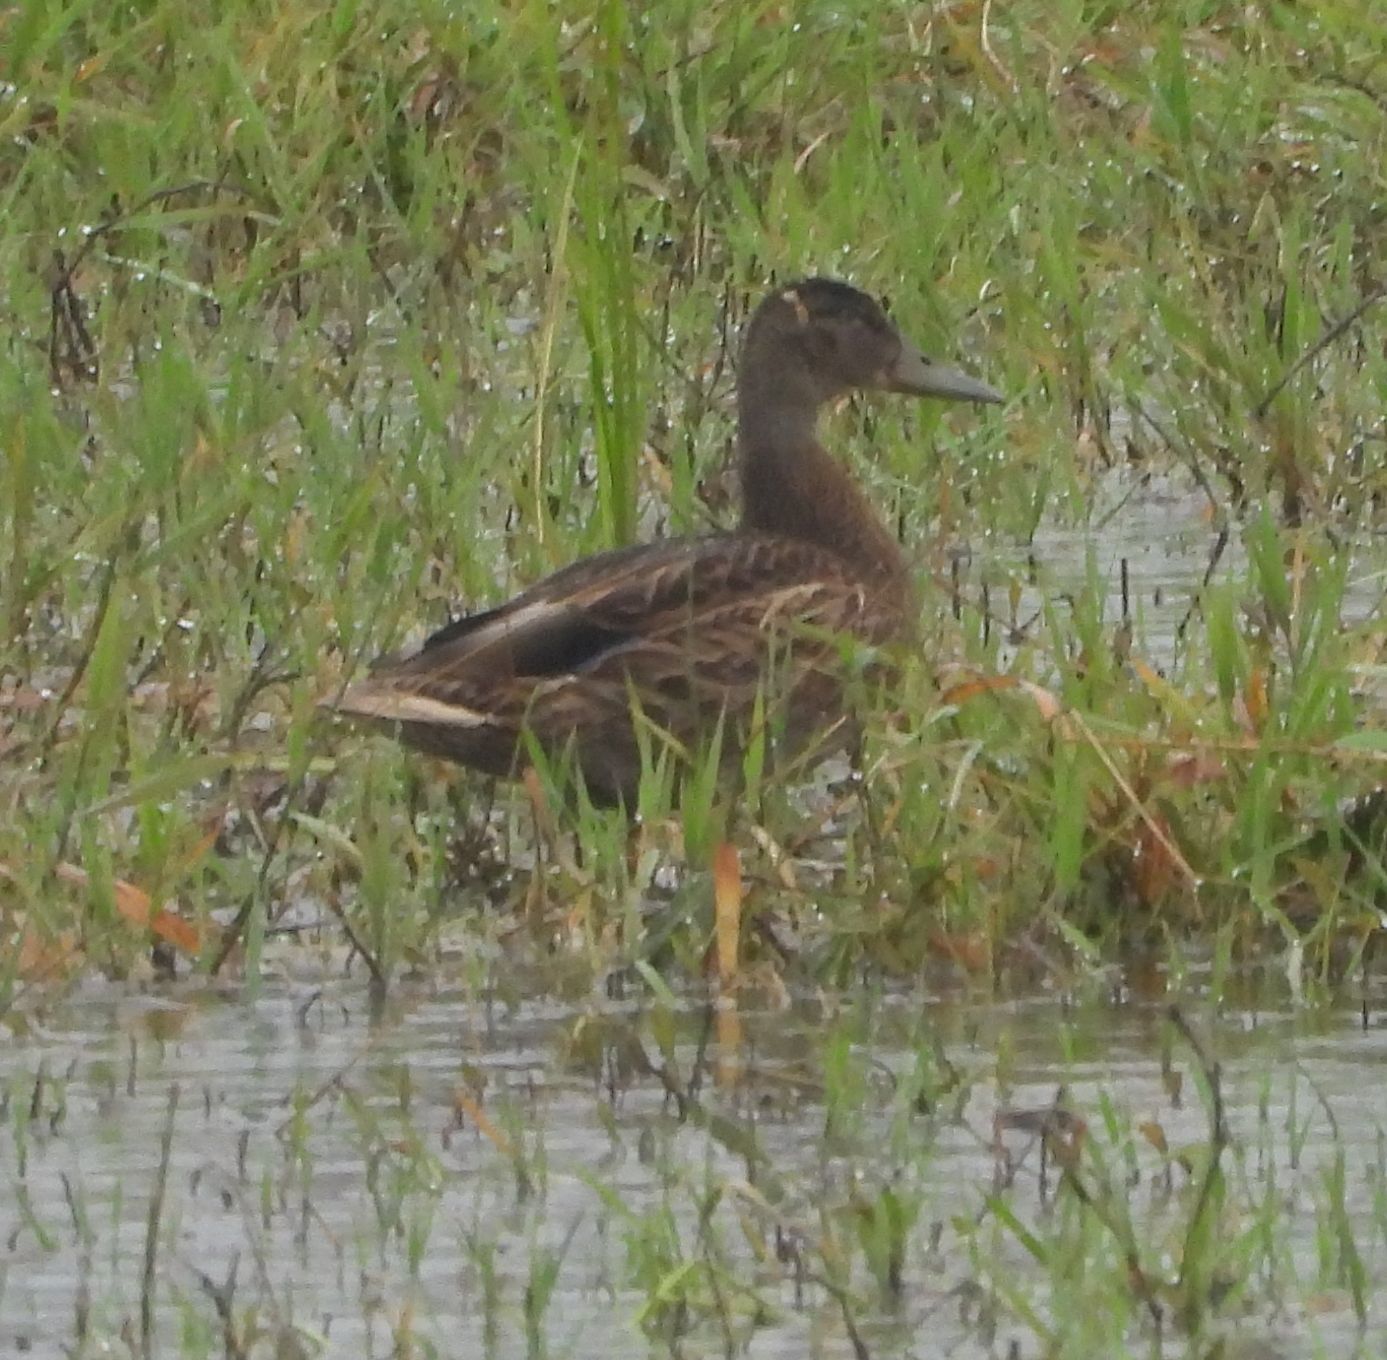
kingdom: Animalia
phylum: Chordata
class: Aves
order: Anseriformes
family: Anatidae
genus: Anas
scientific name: Anas platyrhynchos
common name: Mallard
